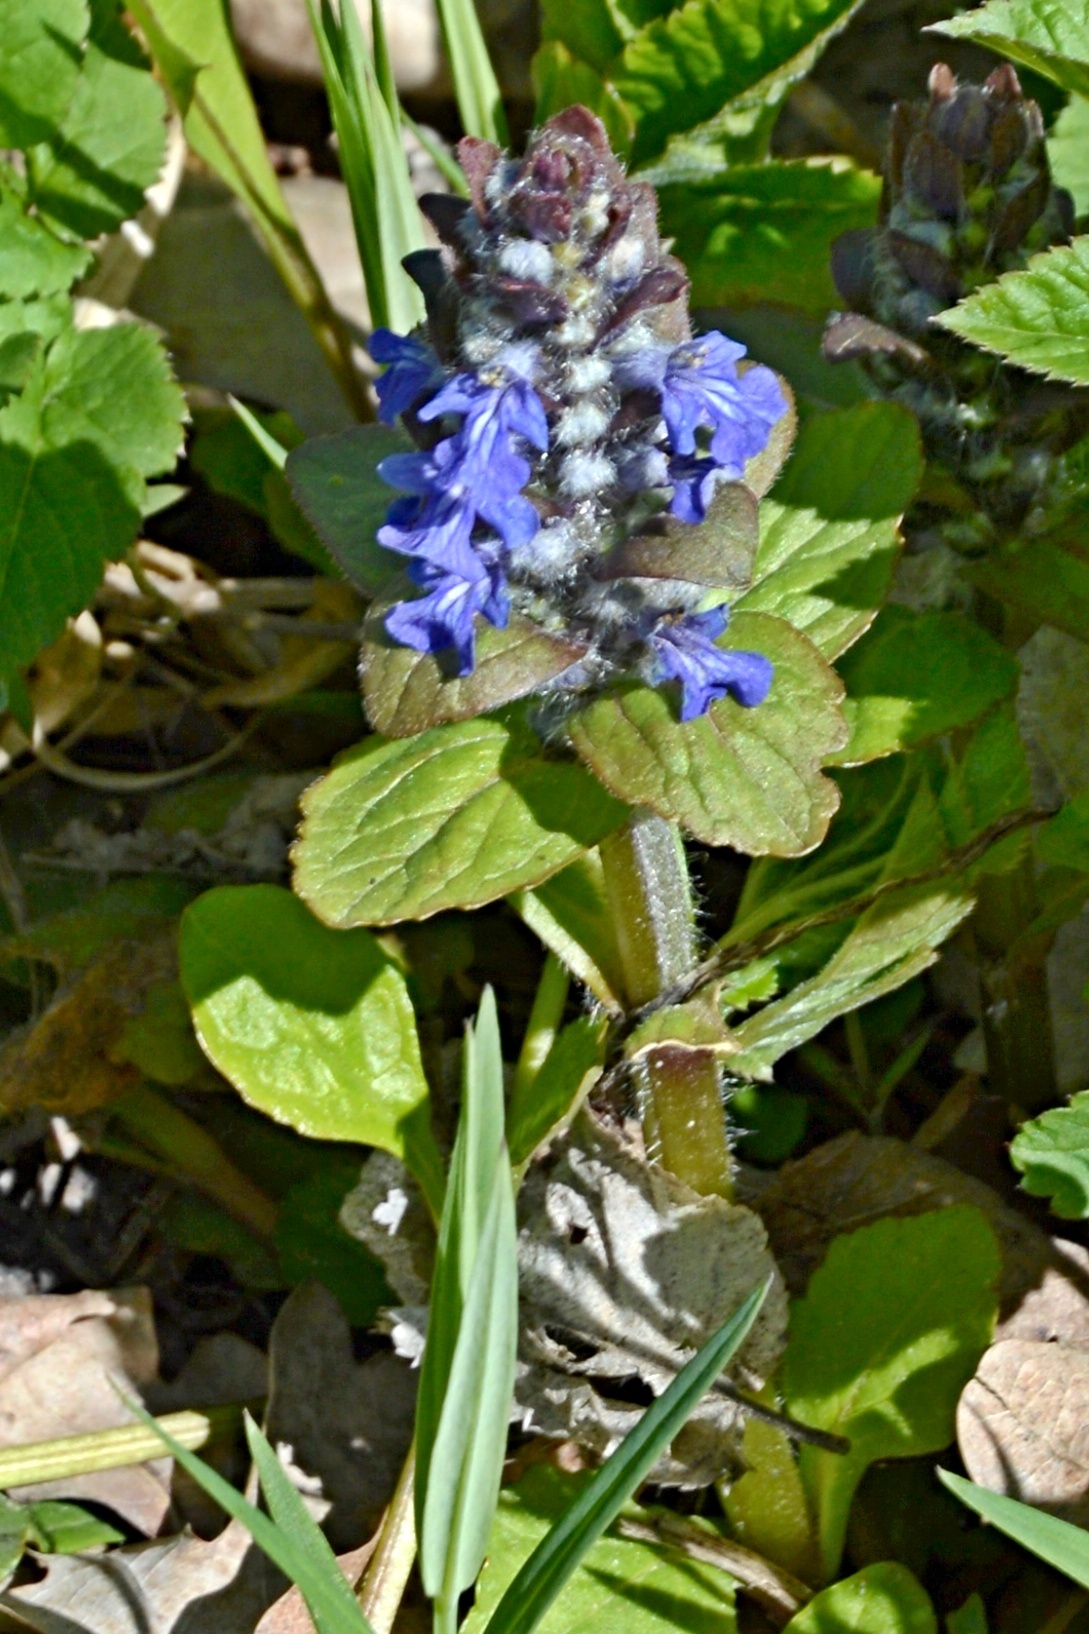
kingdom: Plantae
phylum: Tracheophyta
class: Magnoliopsida
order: Lamiales
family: Lamiaceae
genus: Ajuga
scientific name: Ajuga reptans
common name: Bugle
